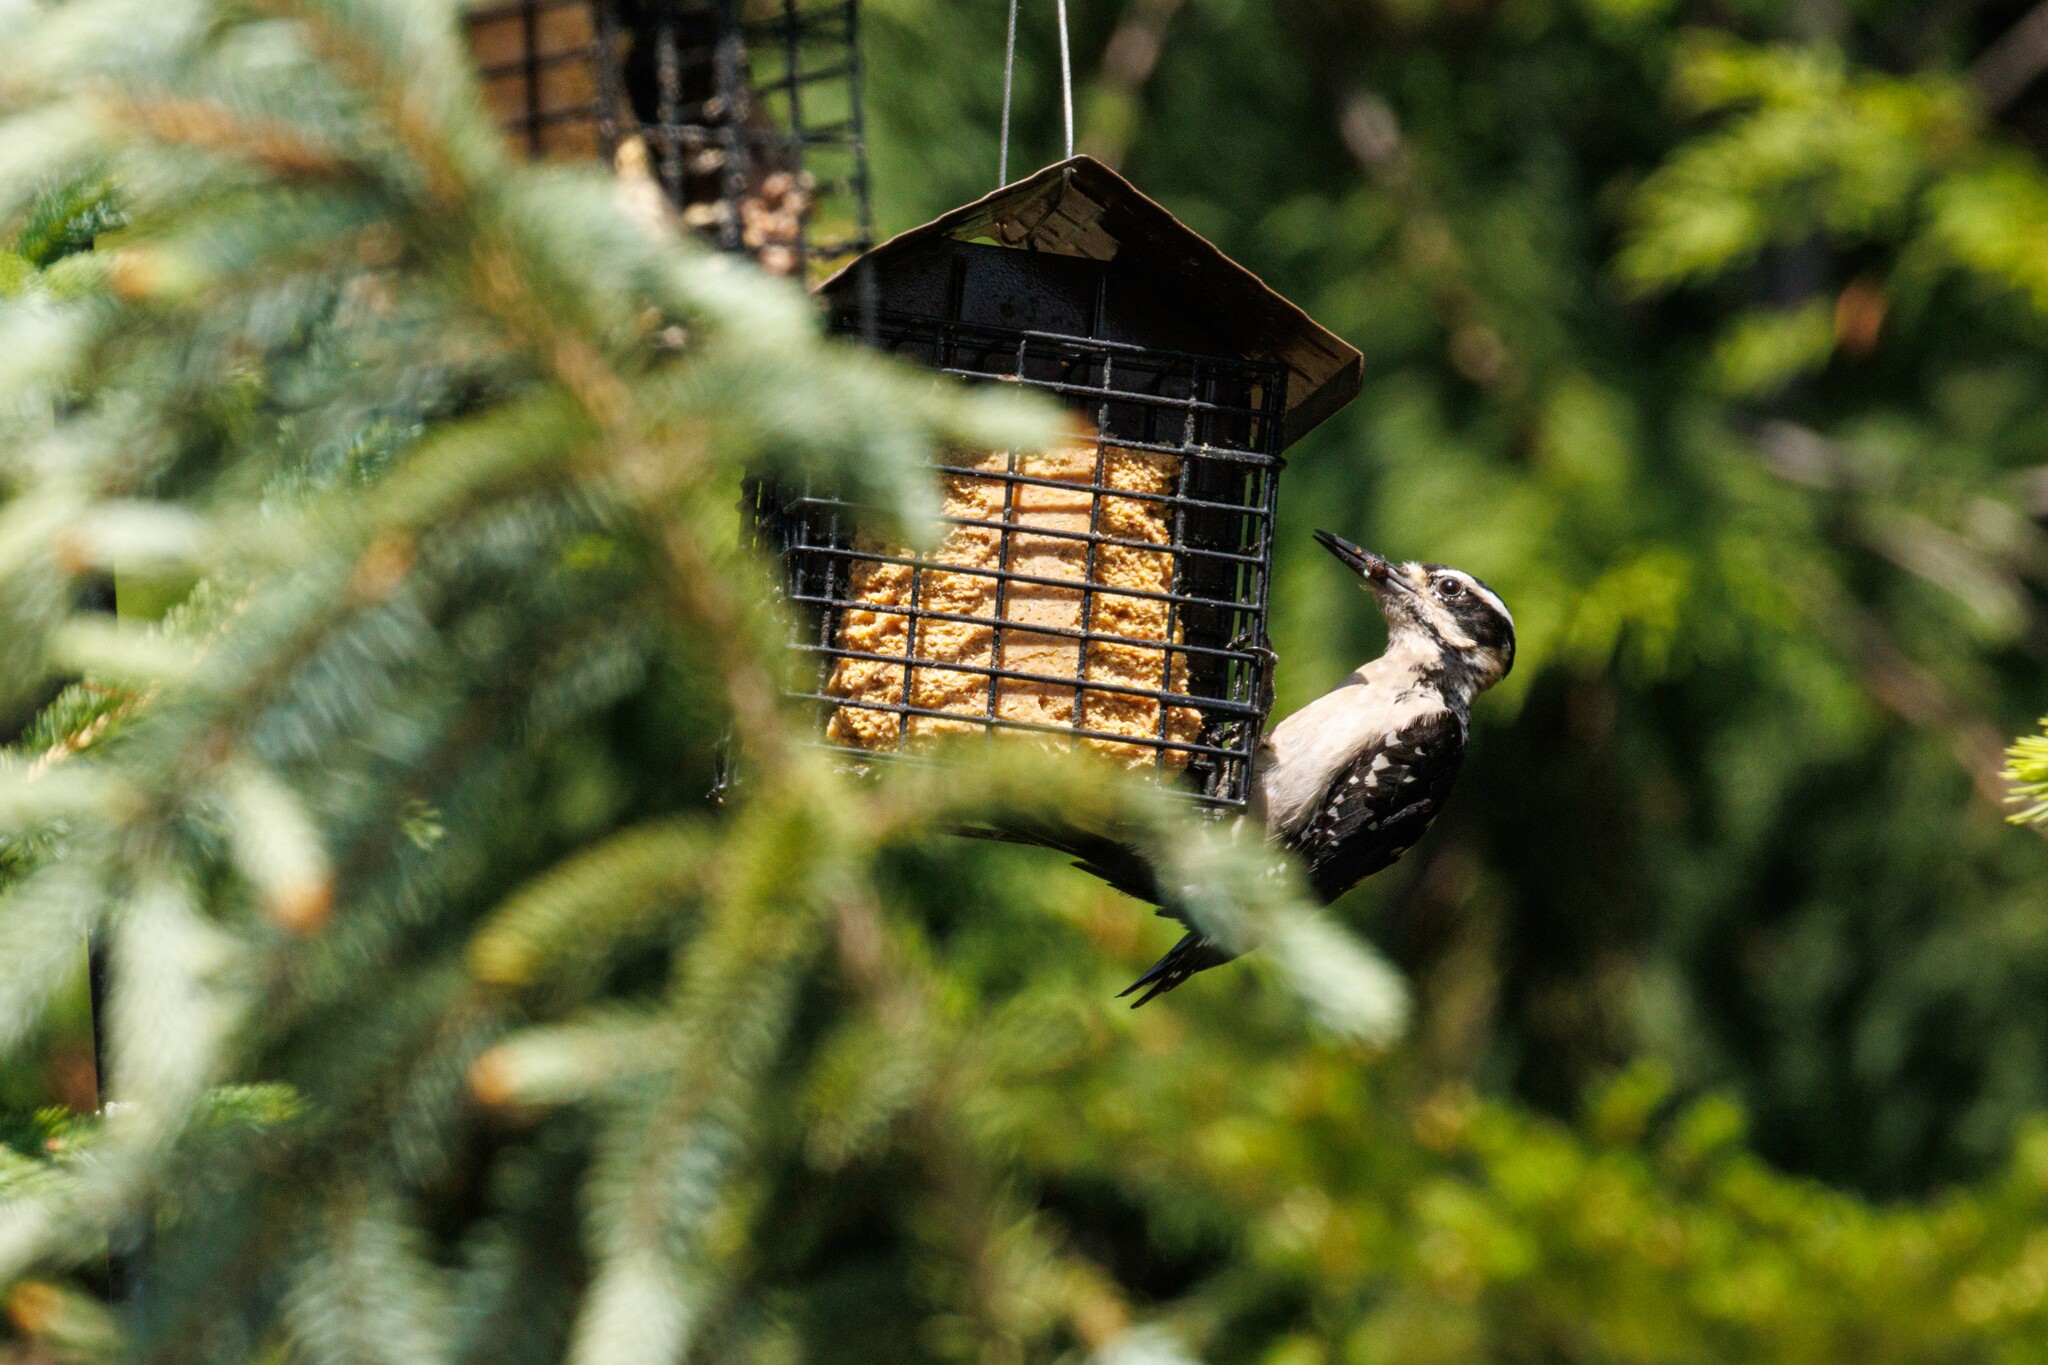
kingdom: Animalia
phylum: Chordata
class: Aves
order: Piciformes
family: Picidae
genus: Leuconotopicus
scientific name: Leuconotopicus villosus
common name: Hairy woodpecker
